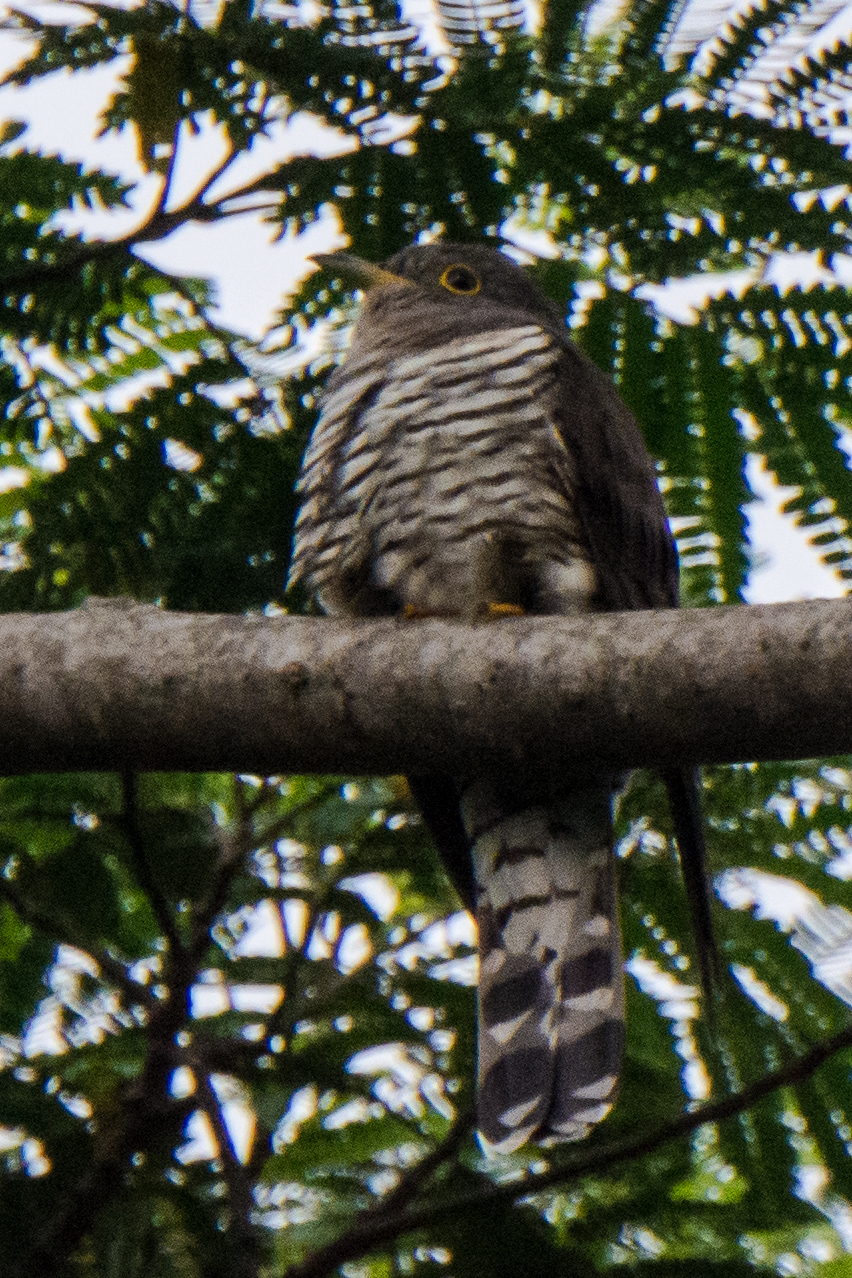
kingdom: Animalia
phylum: Chordata
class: Aves
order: Cuculiformes
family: Cuculidae
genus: Cuculus
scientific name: Cuculus micropterus
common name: Indian cuckoo
